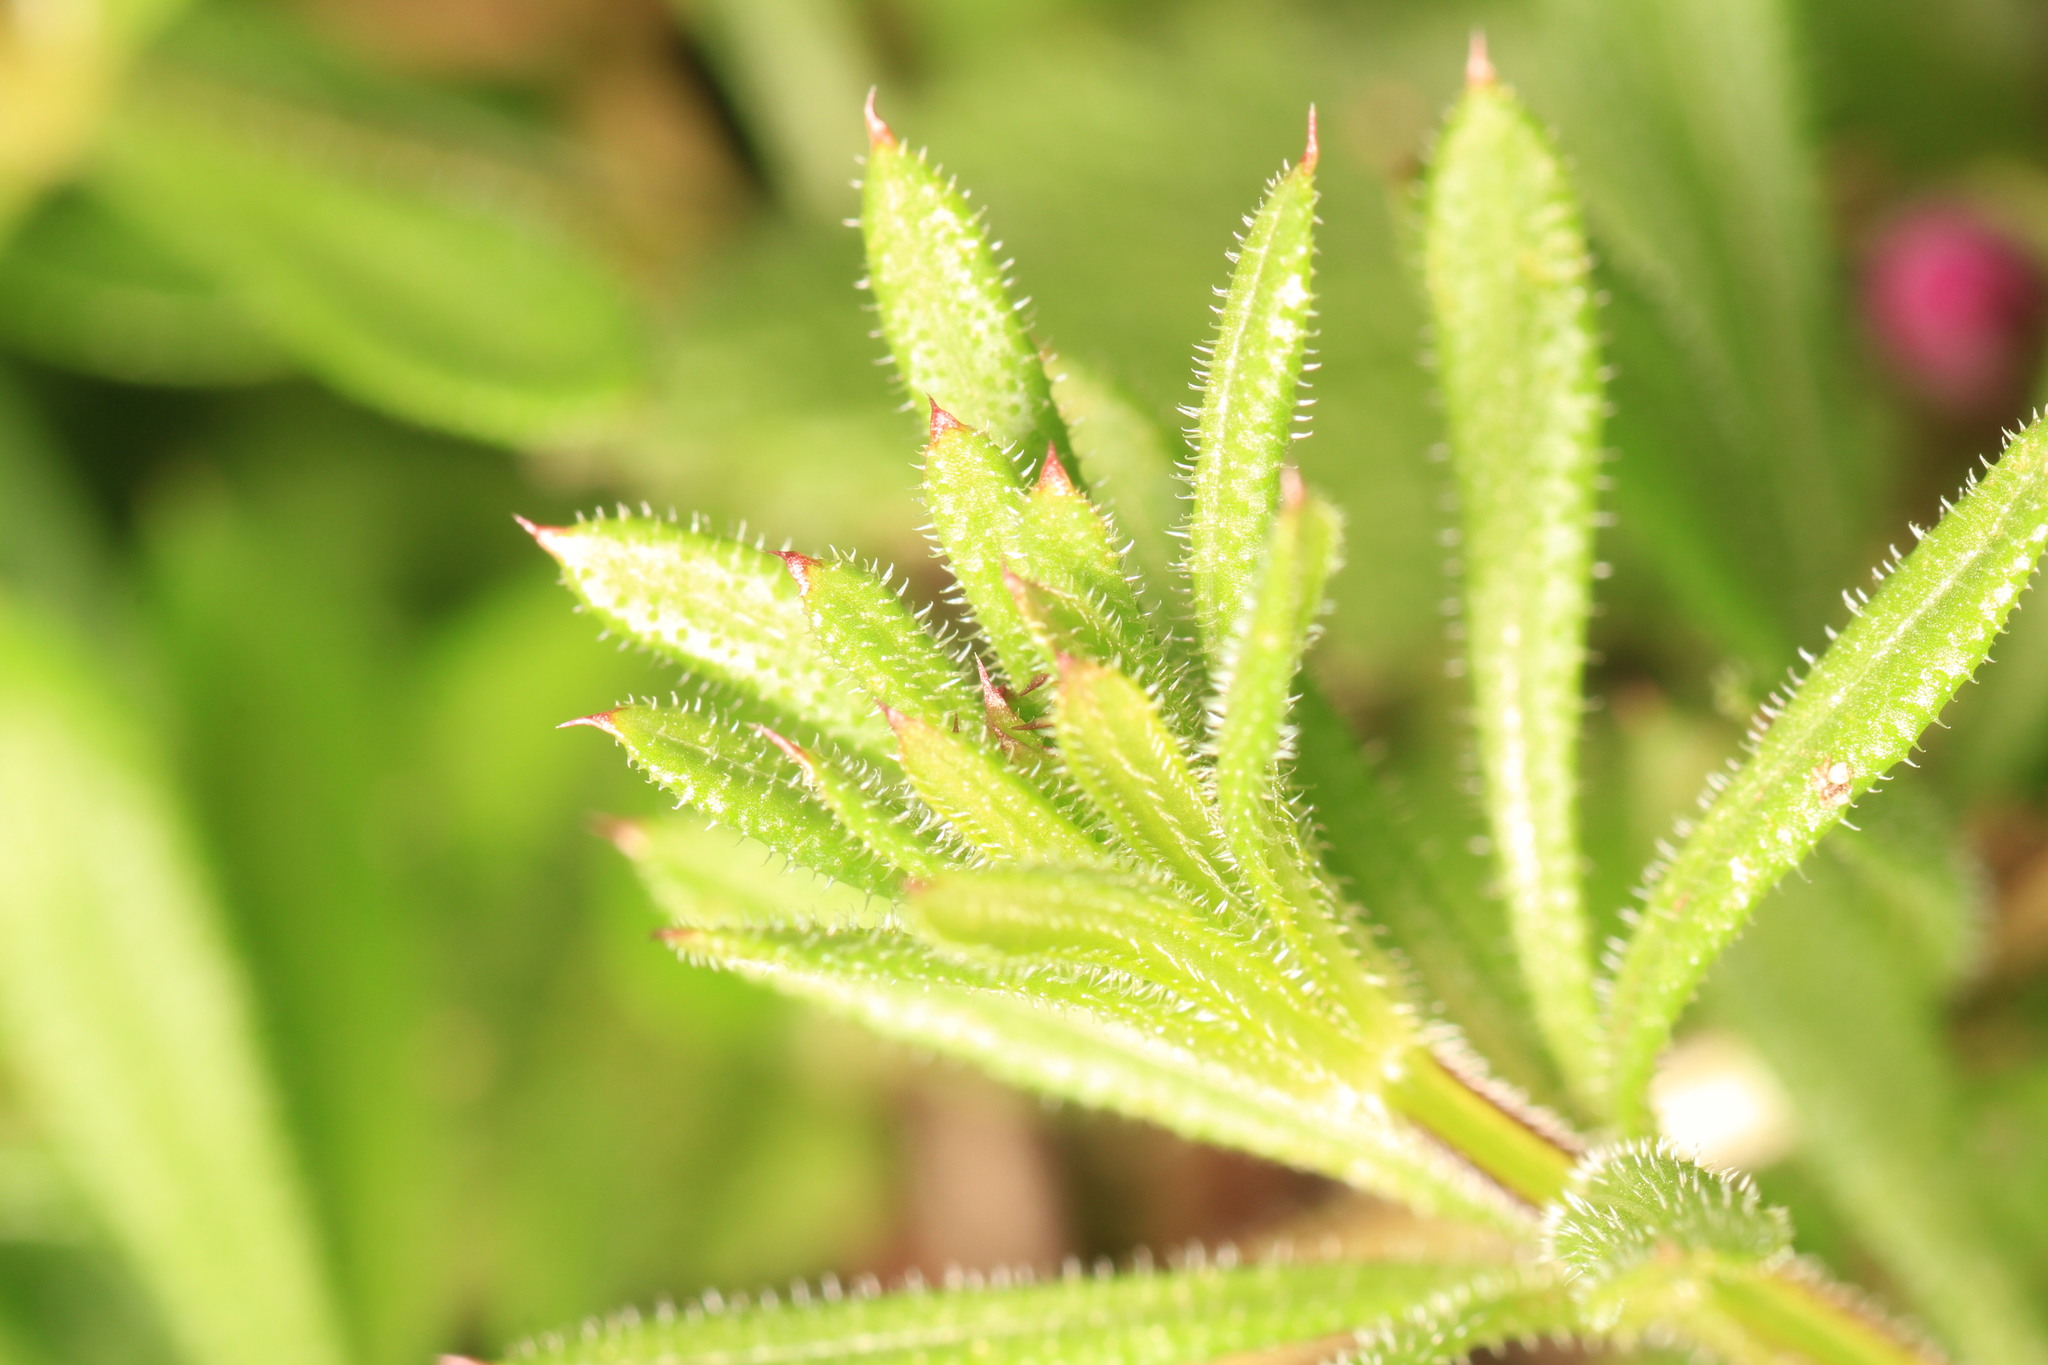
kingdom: Plantae
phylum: Tracheophyta
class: Magnoliopsida
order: Gentianales
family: Rubiaceae
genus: Galium
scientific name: Galium aparine
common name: Cleavers
